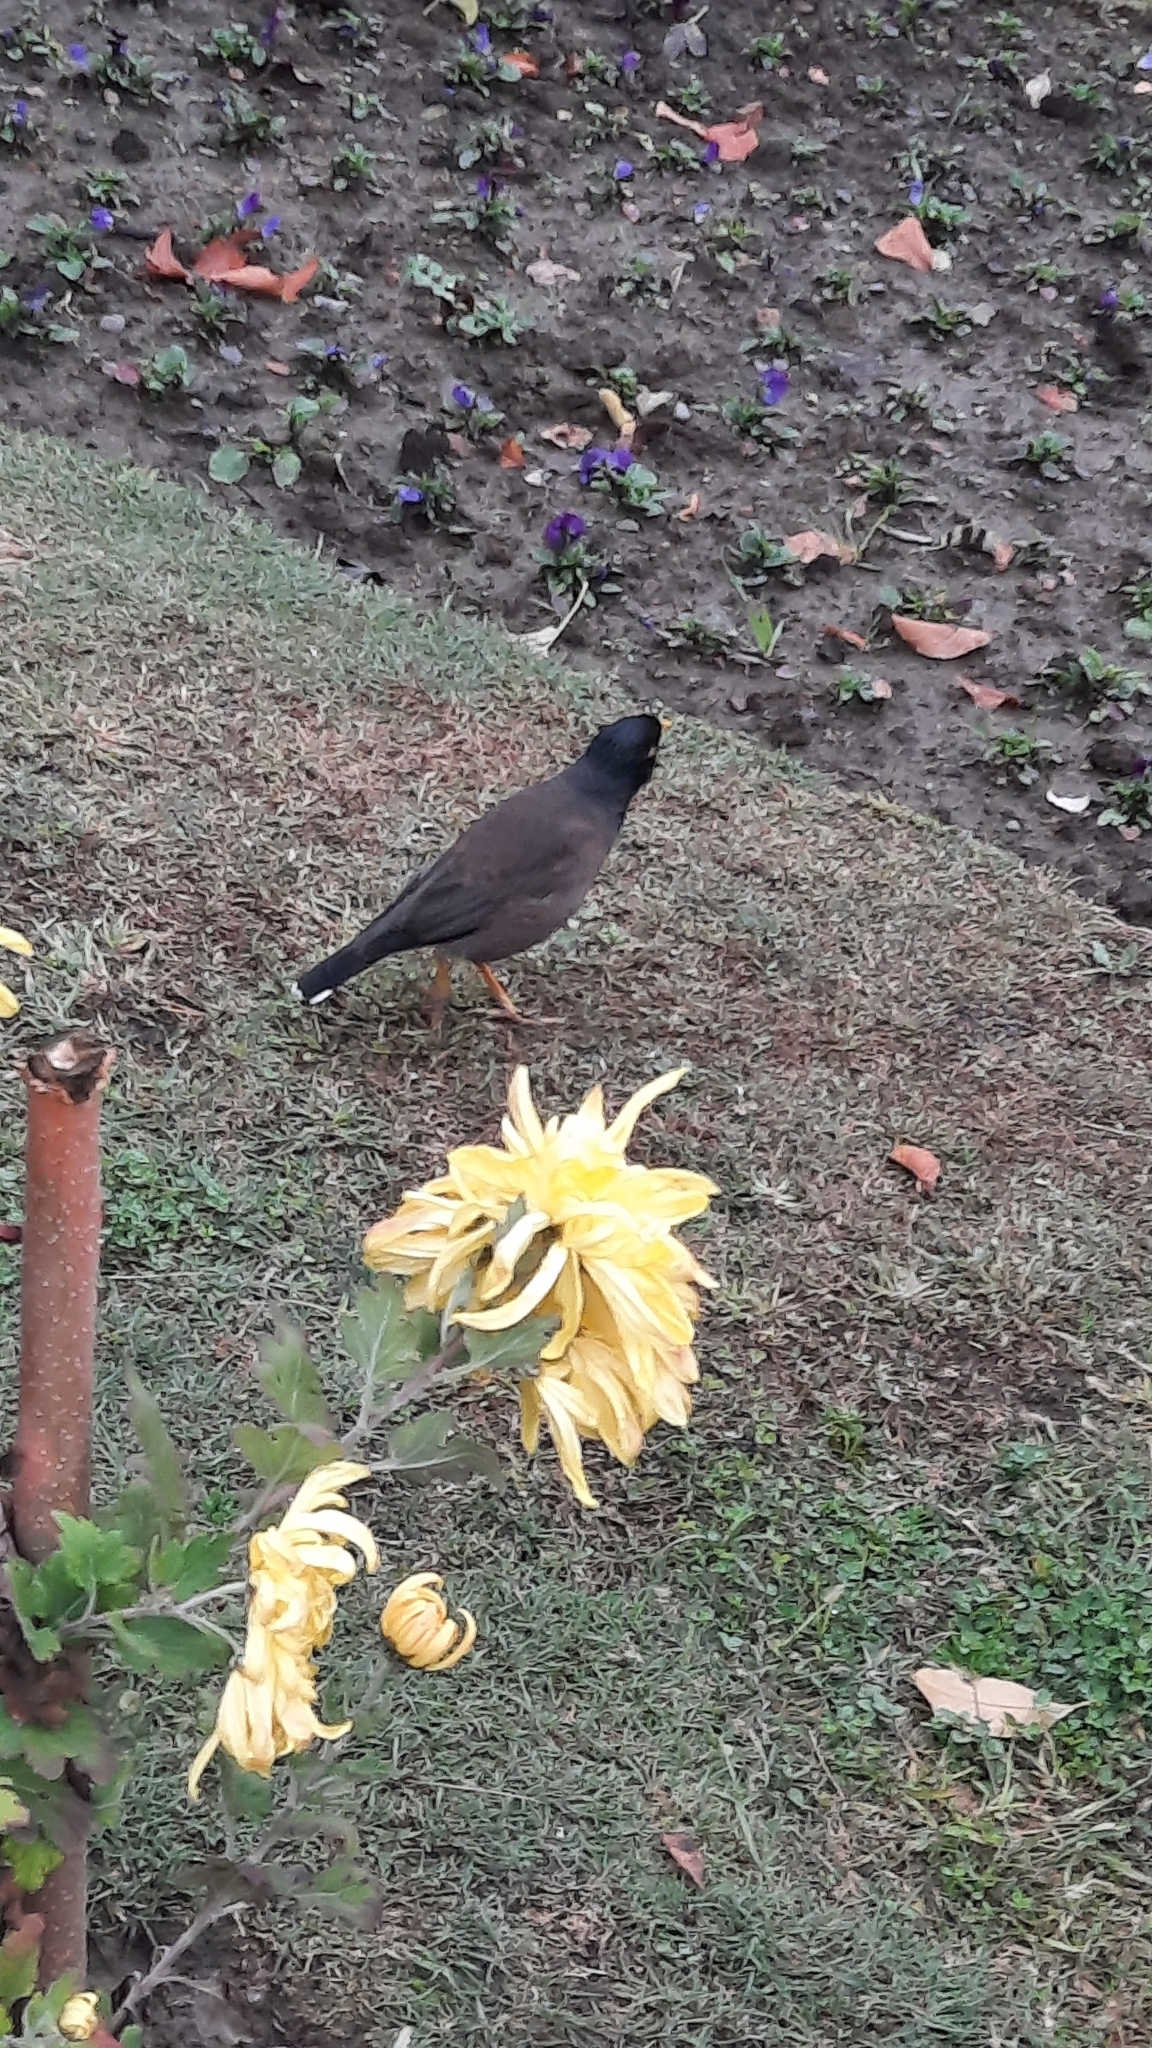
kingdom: Animalia
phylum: Chordata
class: Aves
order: Passeriformes
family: Sturnidae
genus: Acridotheres
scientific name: Acridotheres tristis
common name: Common myna
